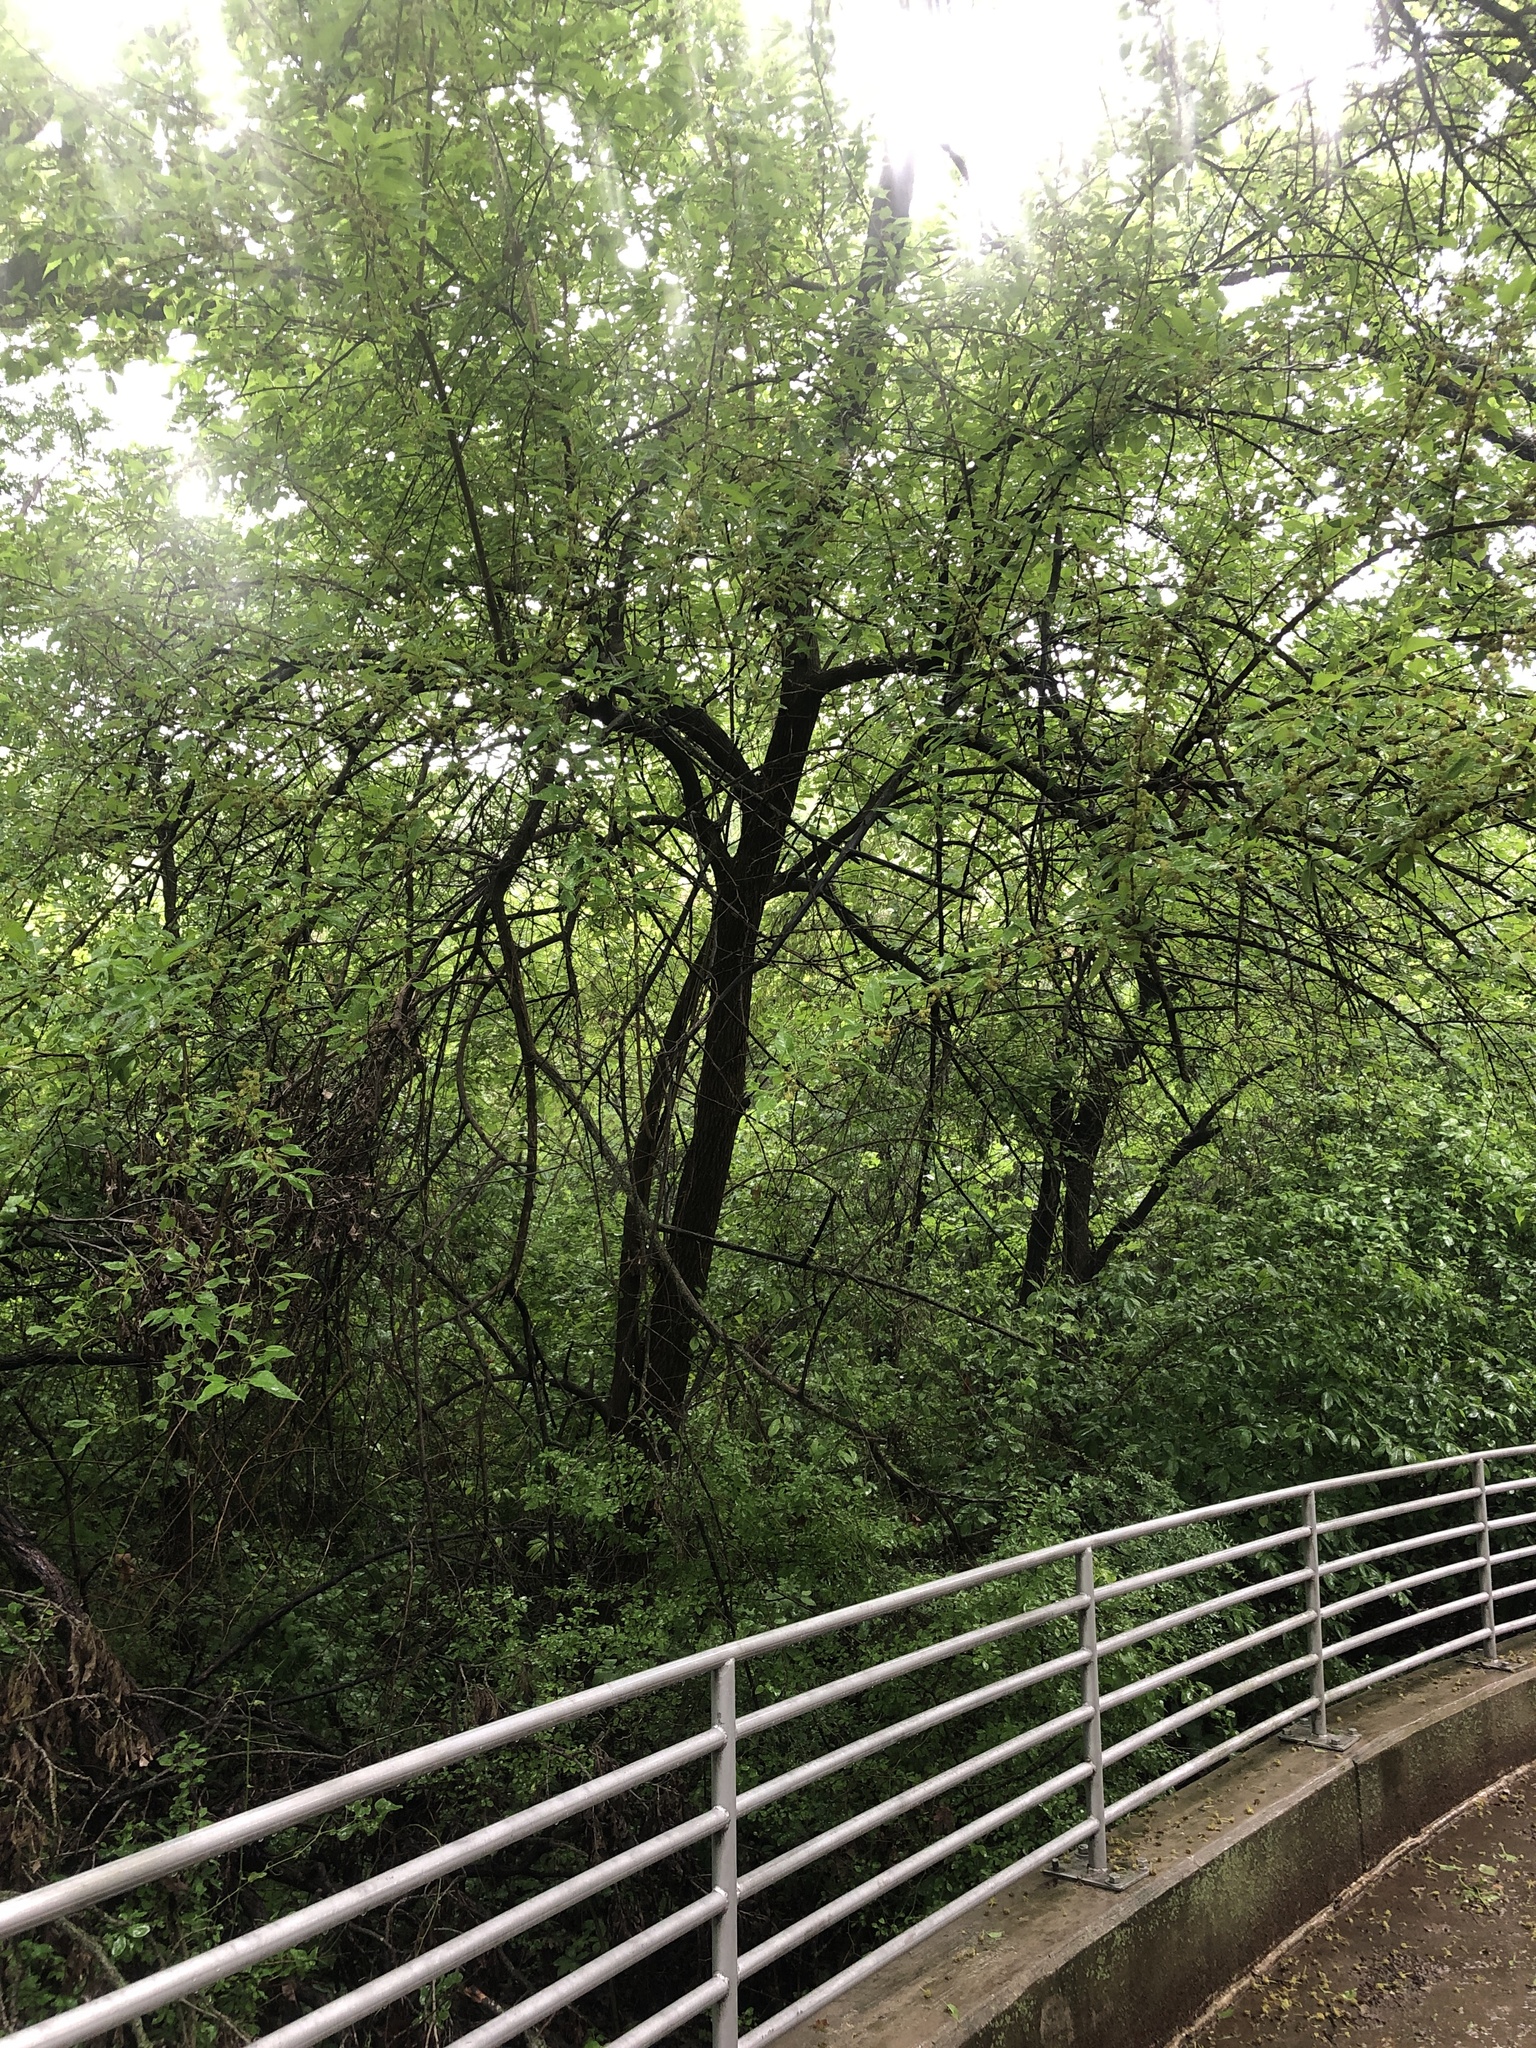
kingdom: Plantae
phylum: Tracheophyta
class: Magnoliopsida
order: Rosales
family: Moraceae
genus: Maclura
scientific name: Maclura pomifera
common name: Osage-orange
